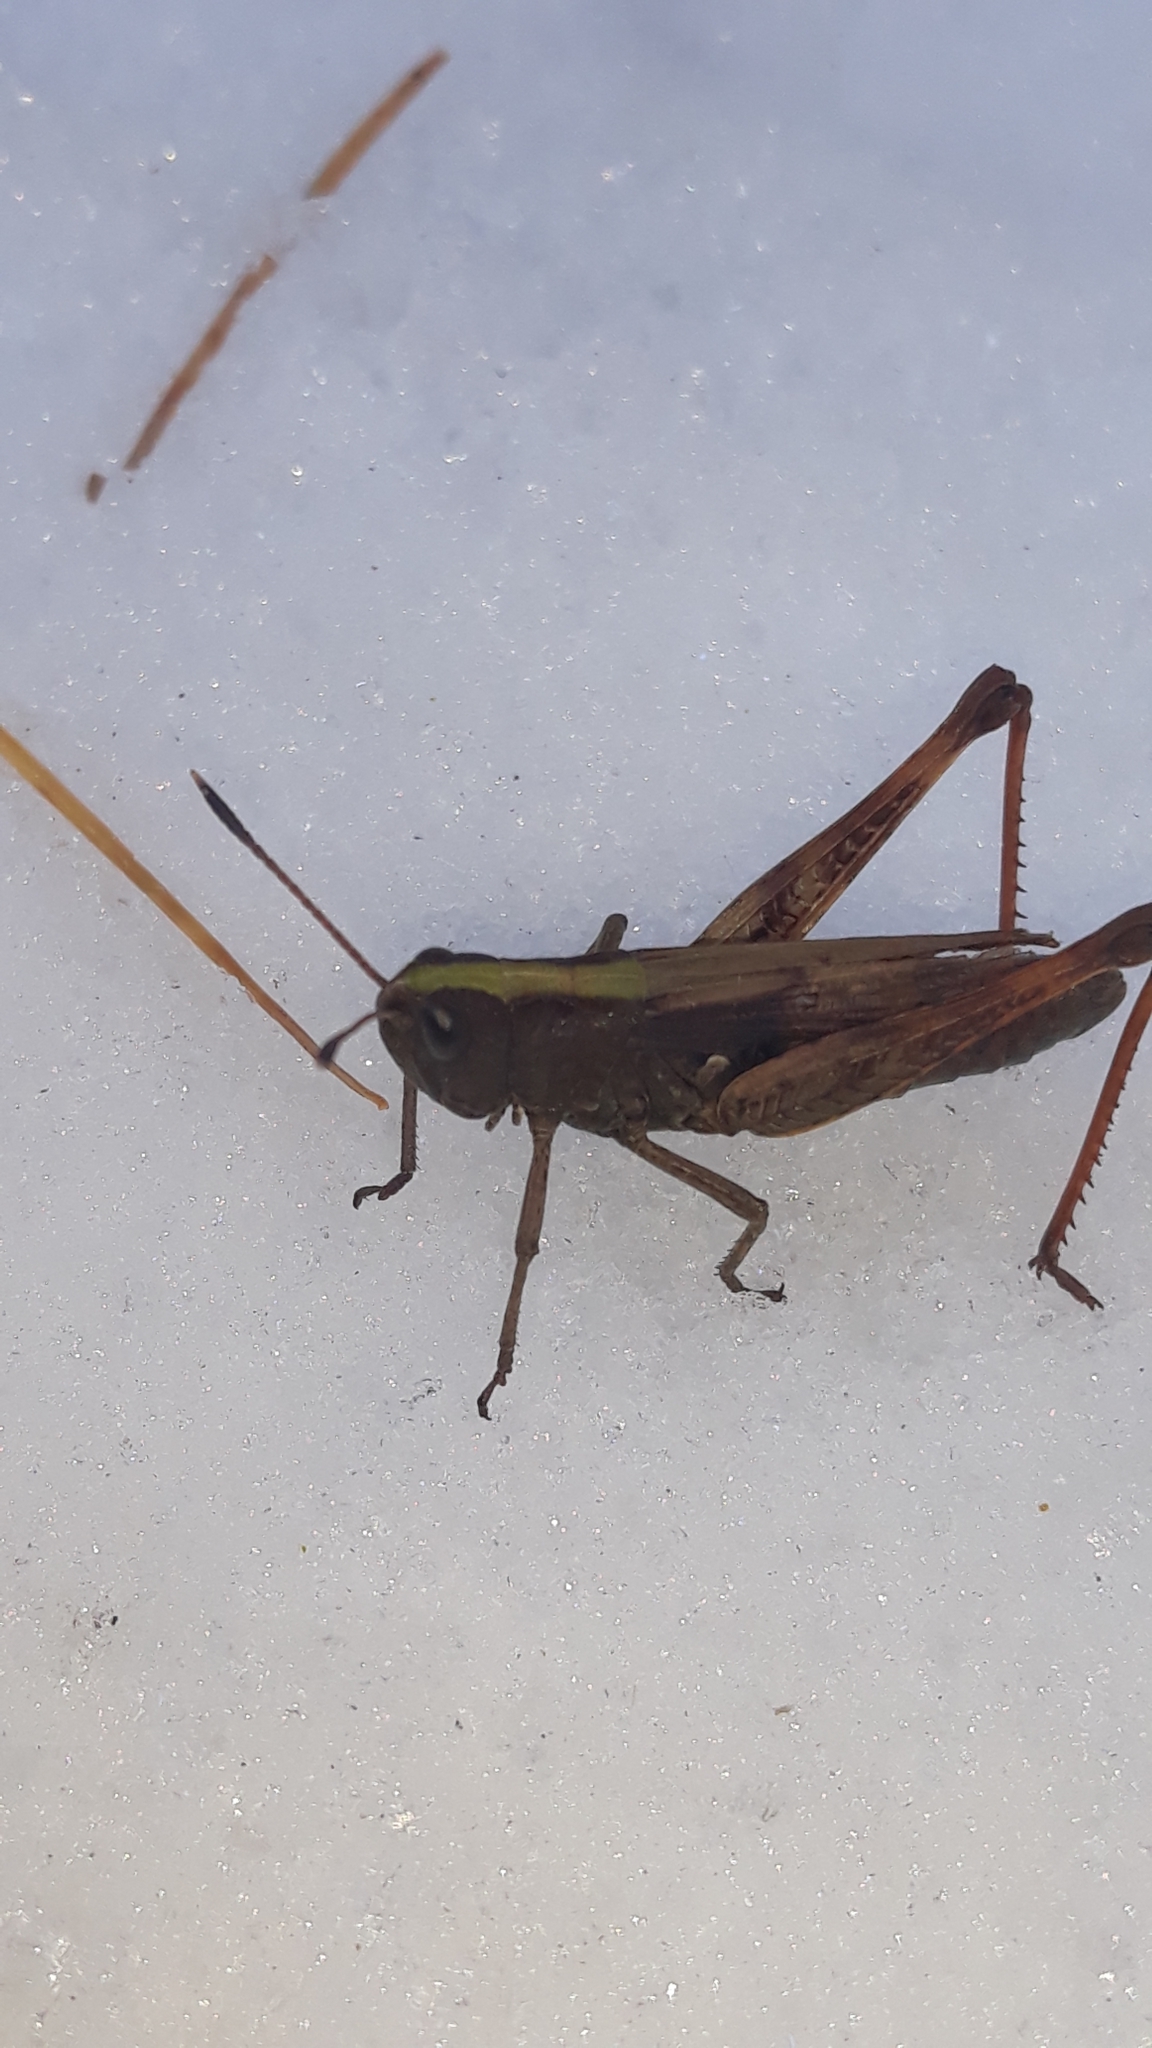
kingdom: Animalia
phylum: Arthropoda
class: Insecta
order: Orthoptera
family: Acrididae
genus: Gomphocerippus
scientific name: Gomphocerippus rufus
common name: Rufous grasshopper
